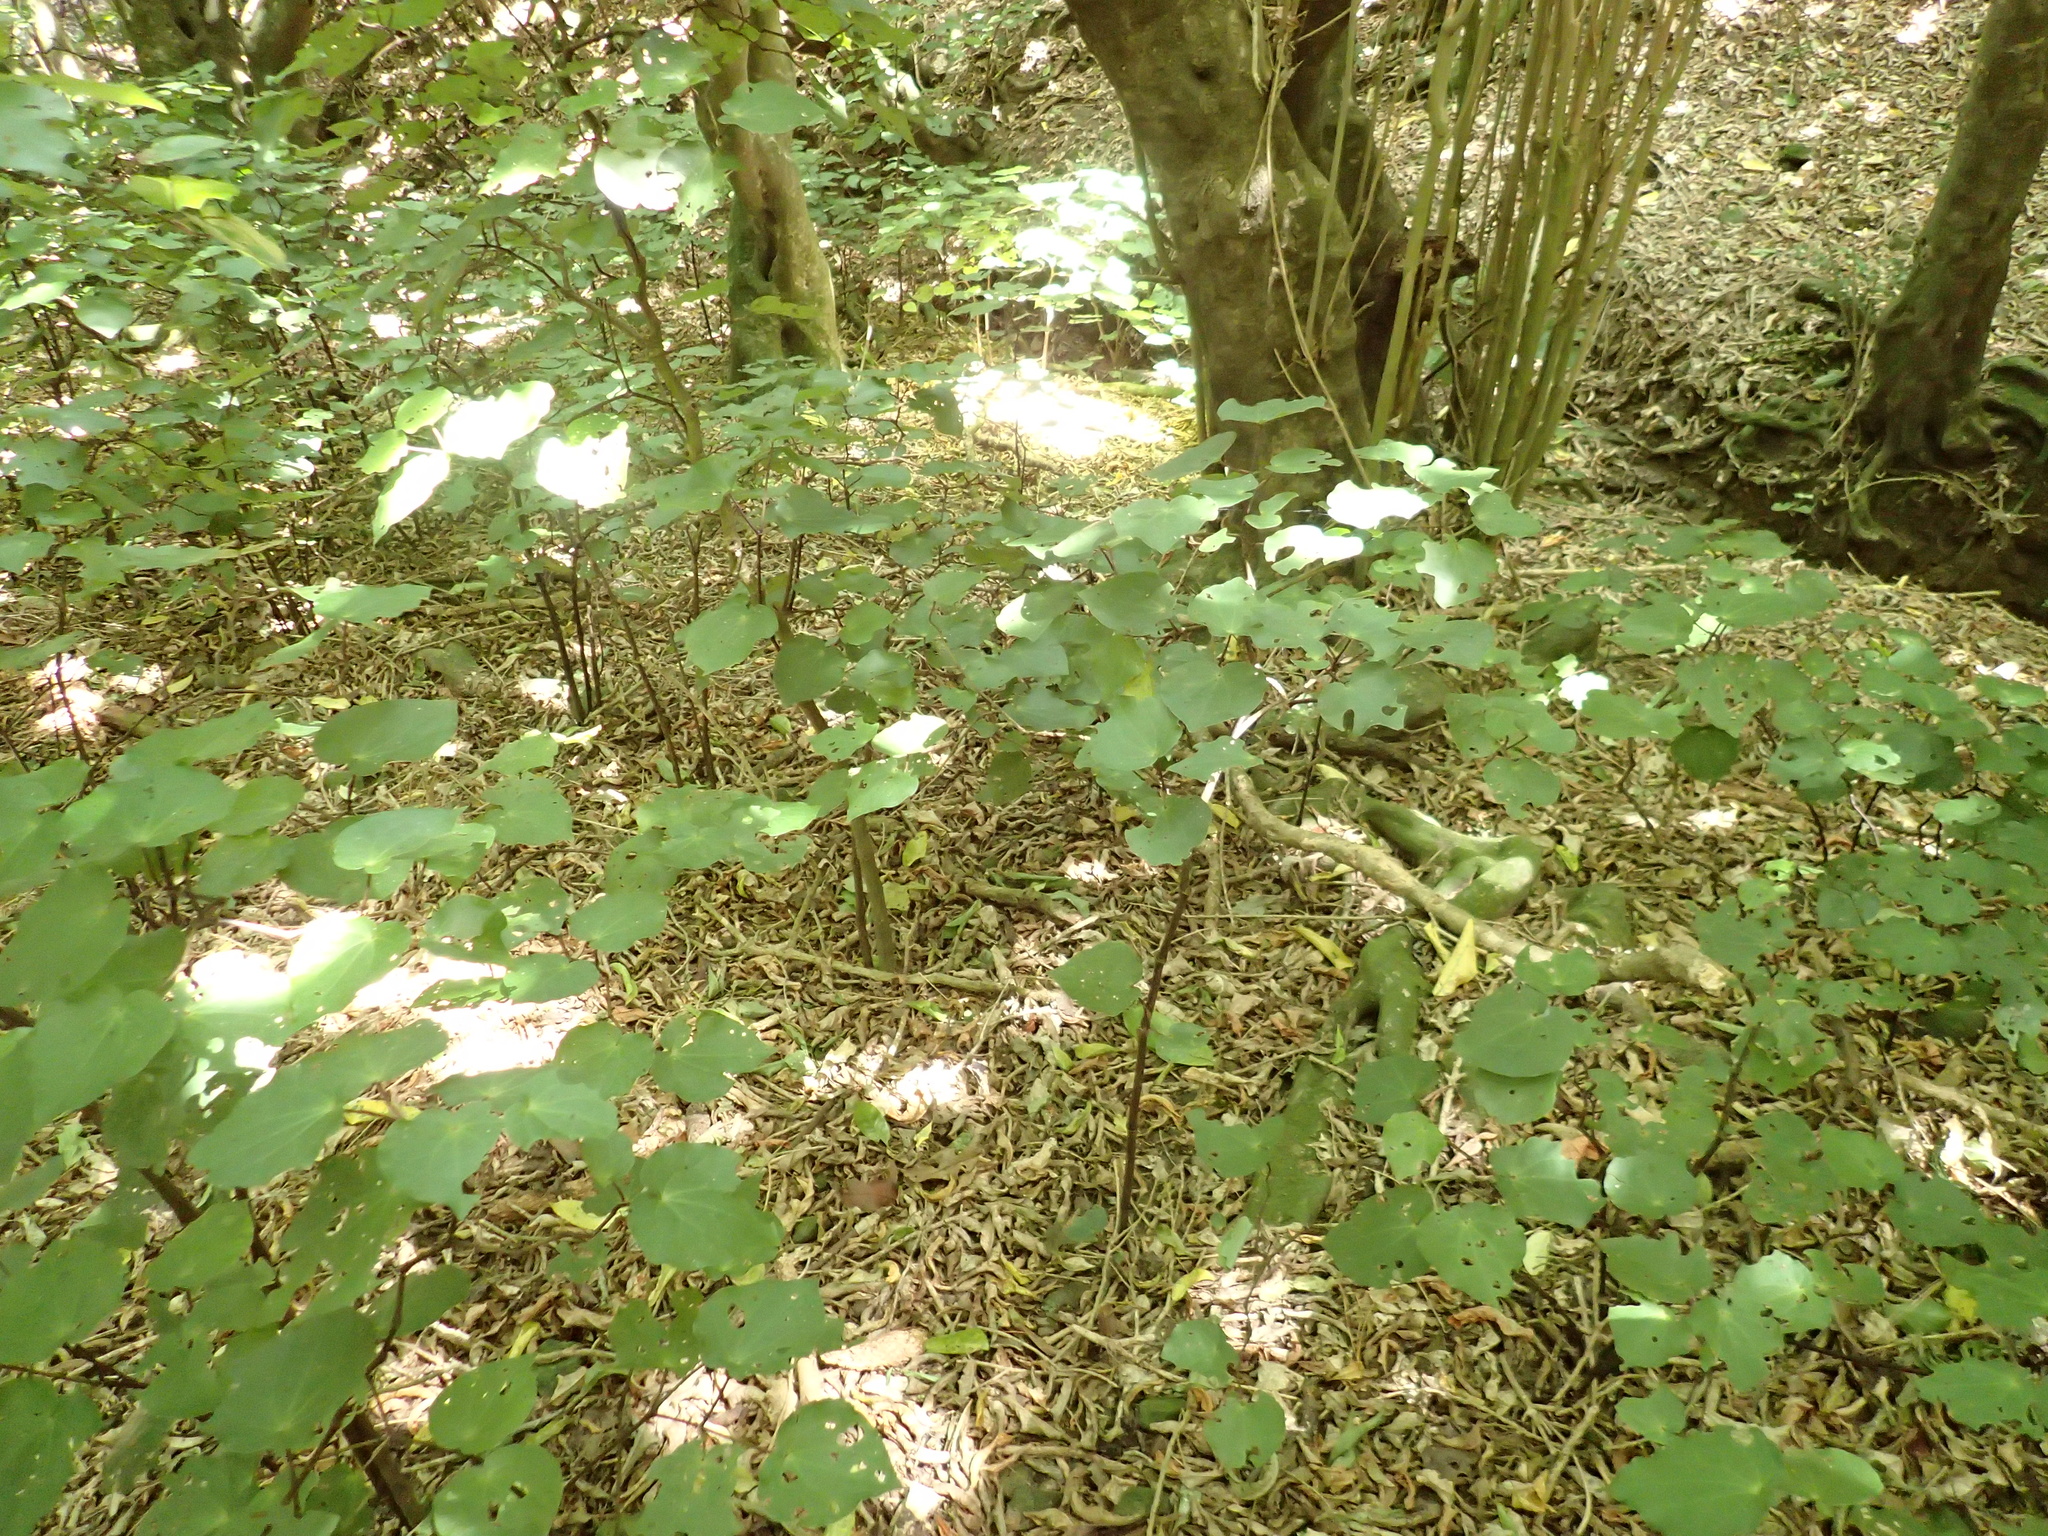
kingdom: Plantae
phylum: Tracheophyta
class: Magnoliopsida
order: Piperales
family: Piperaceae
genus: Macropiper
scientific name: Macropiper excelsum
